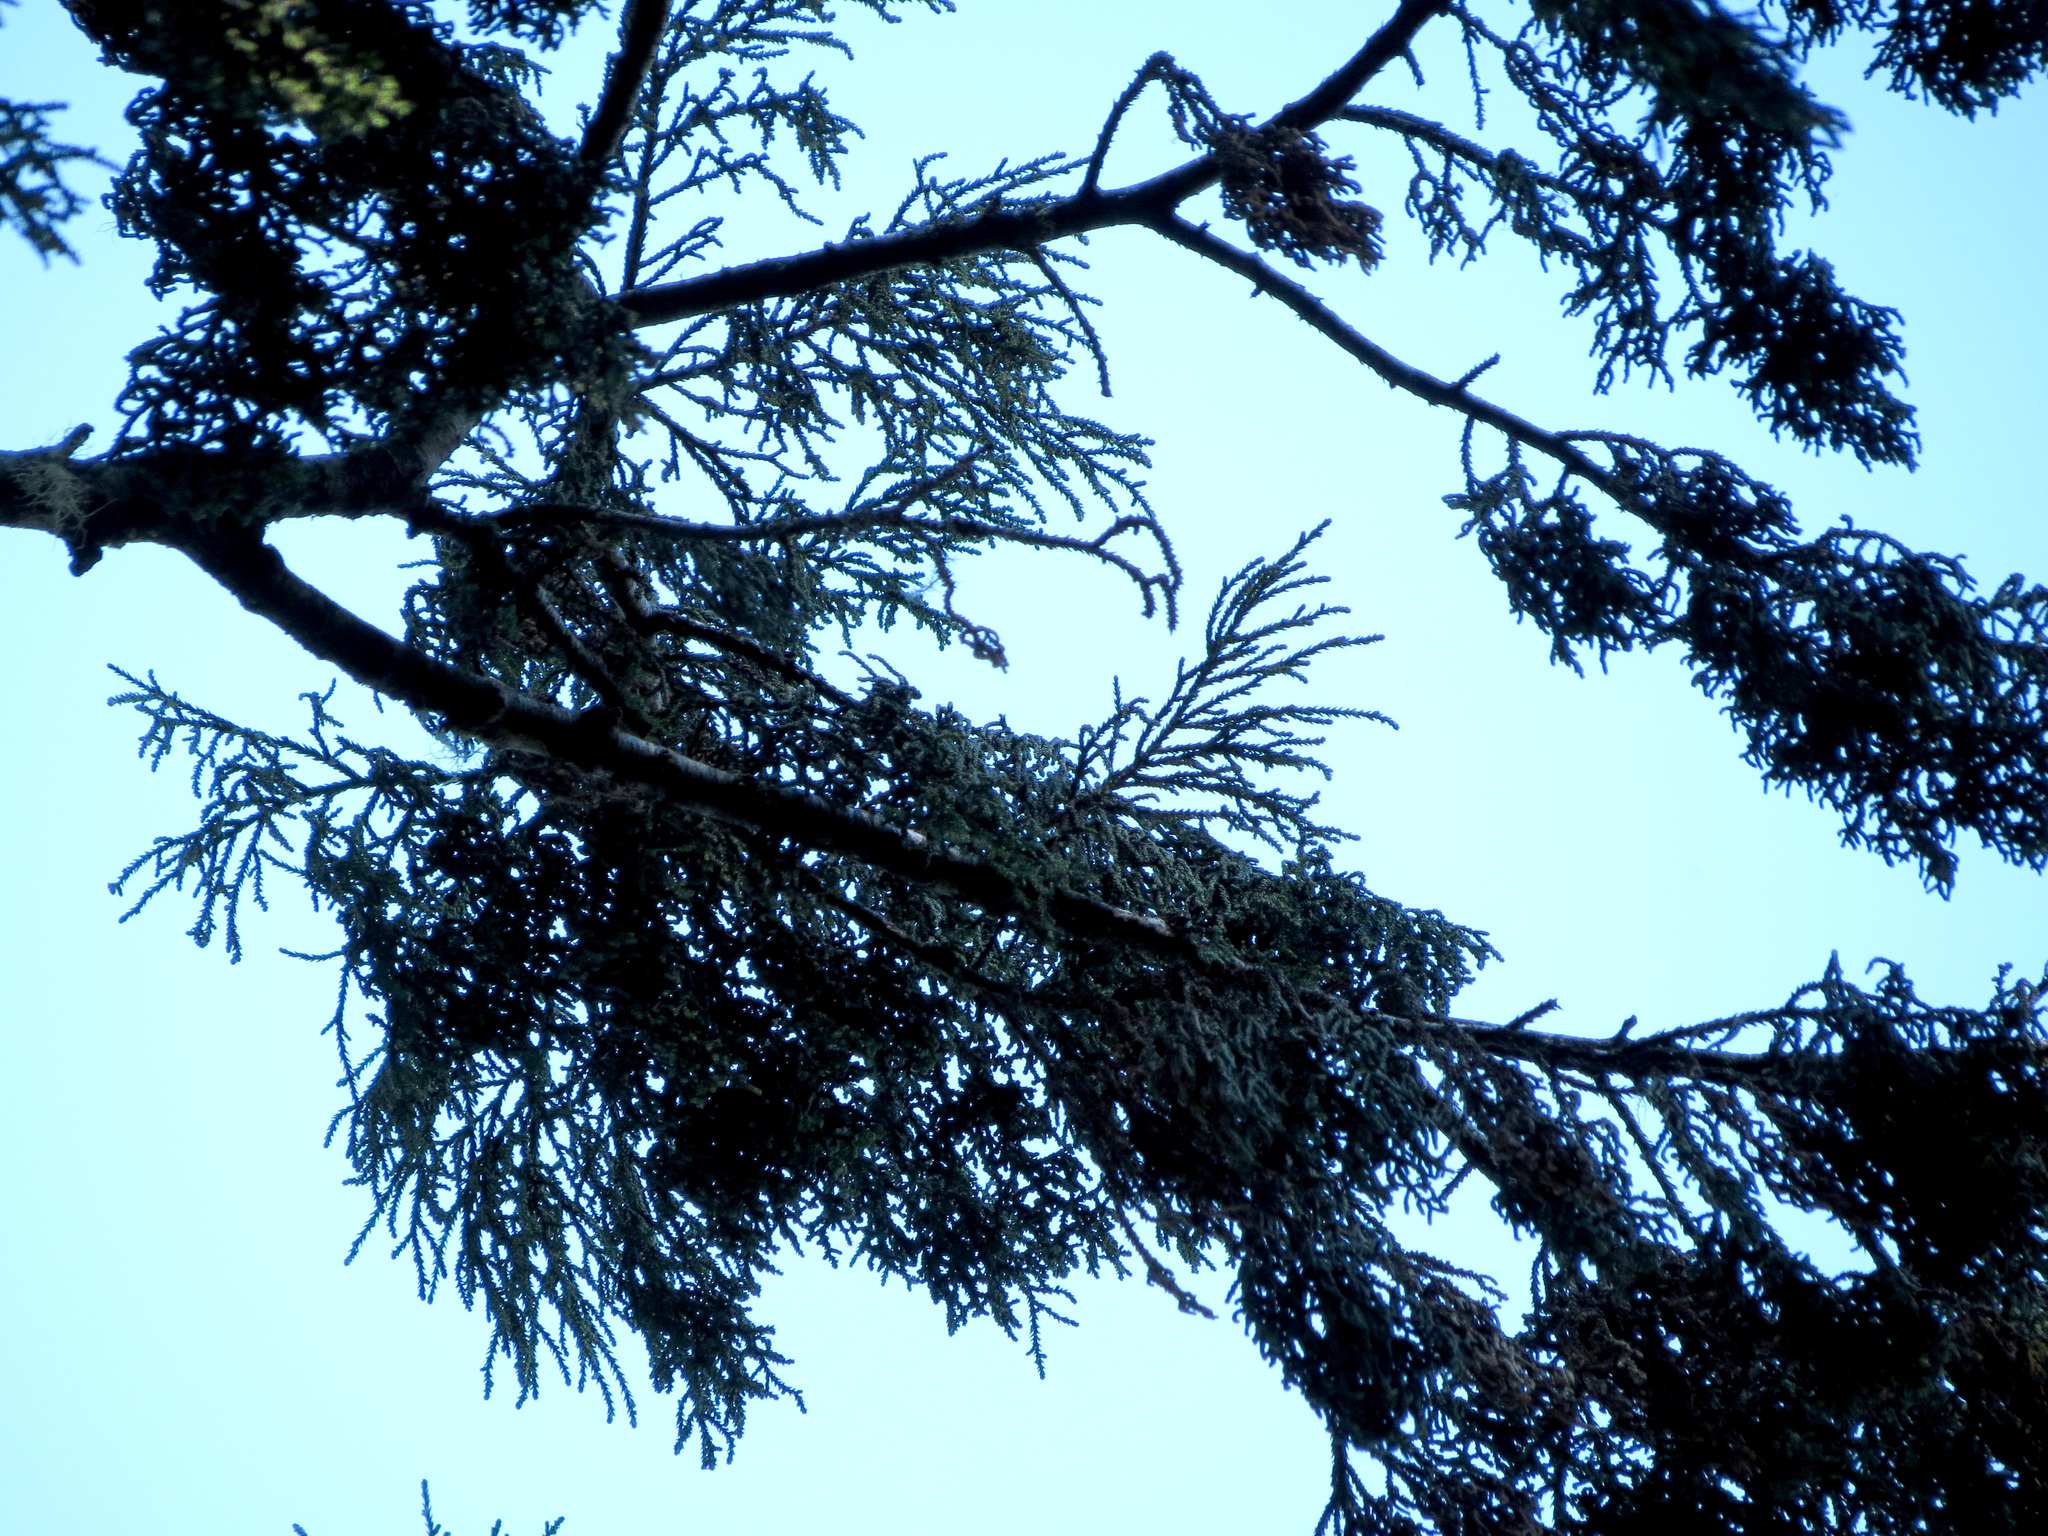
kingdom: Plantae
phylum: Tracheophyta
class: Pinopsida
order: Pinales
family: Podocarpaceae
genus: Dacrydium
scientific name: Dacrydium cupressinum
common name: Red pine
